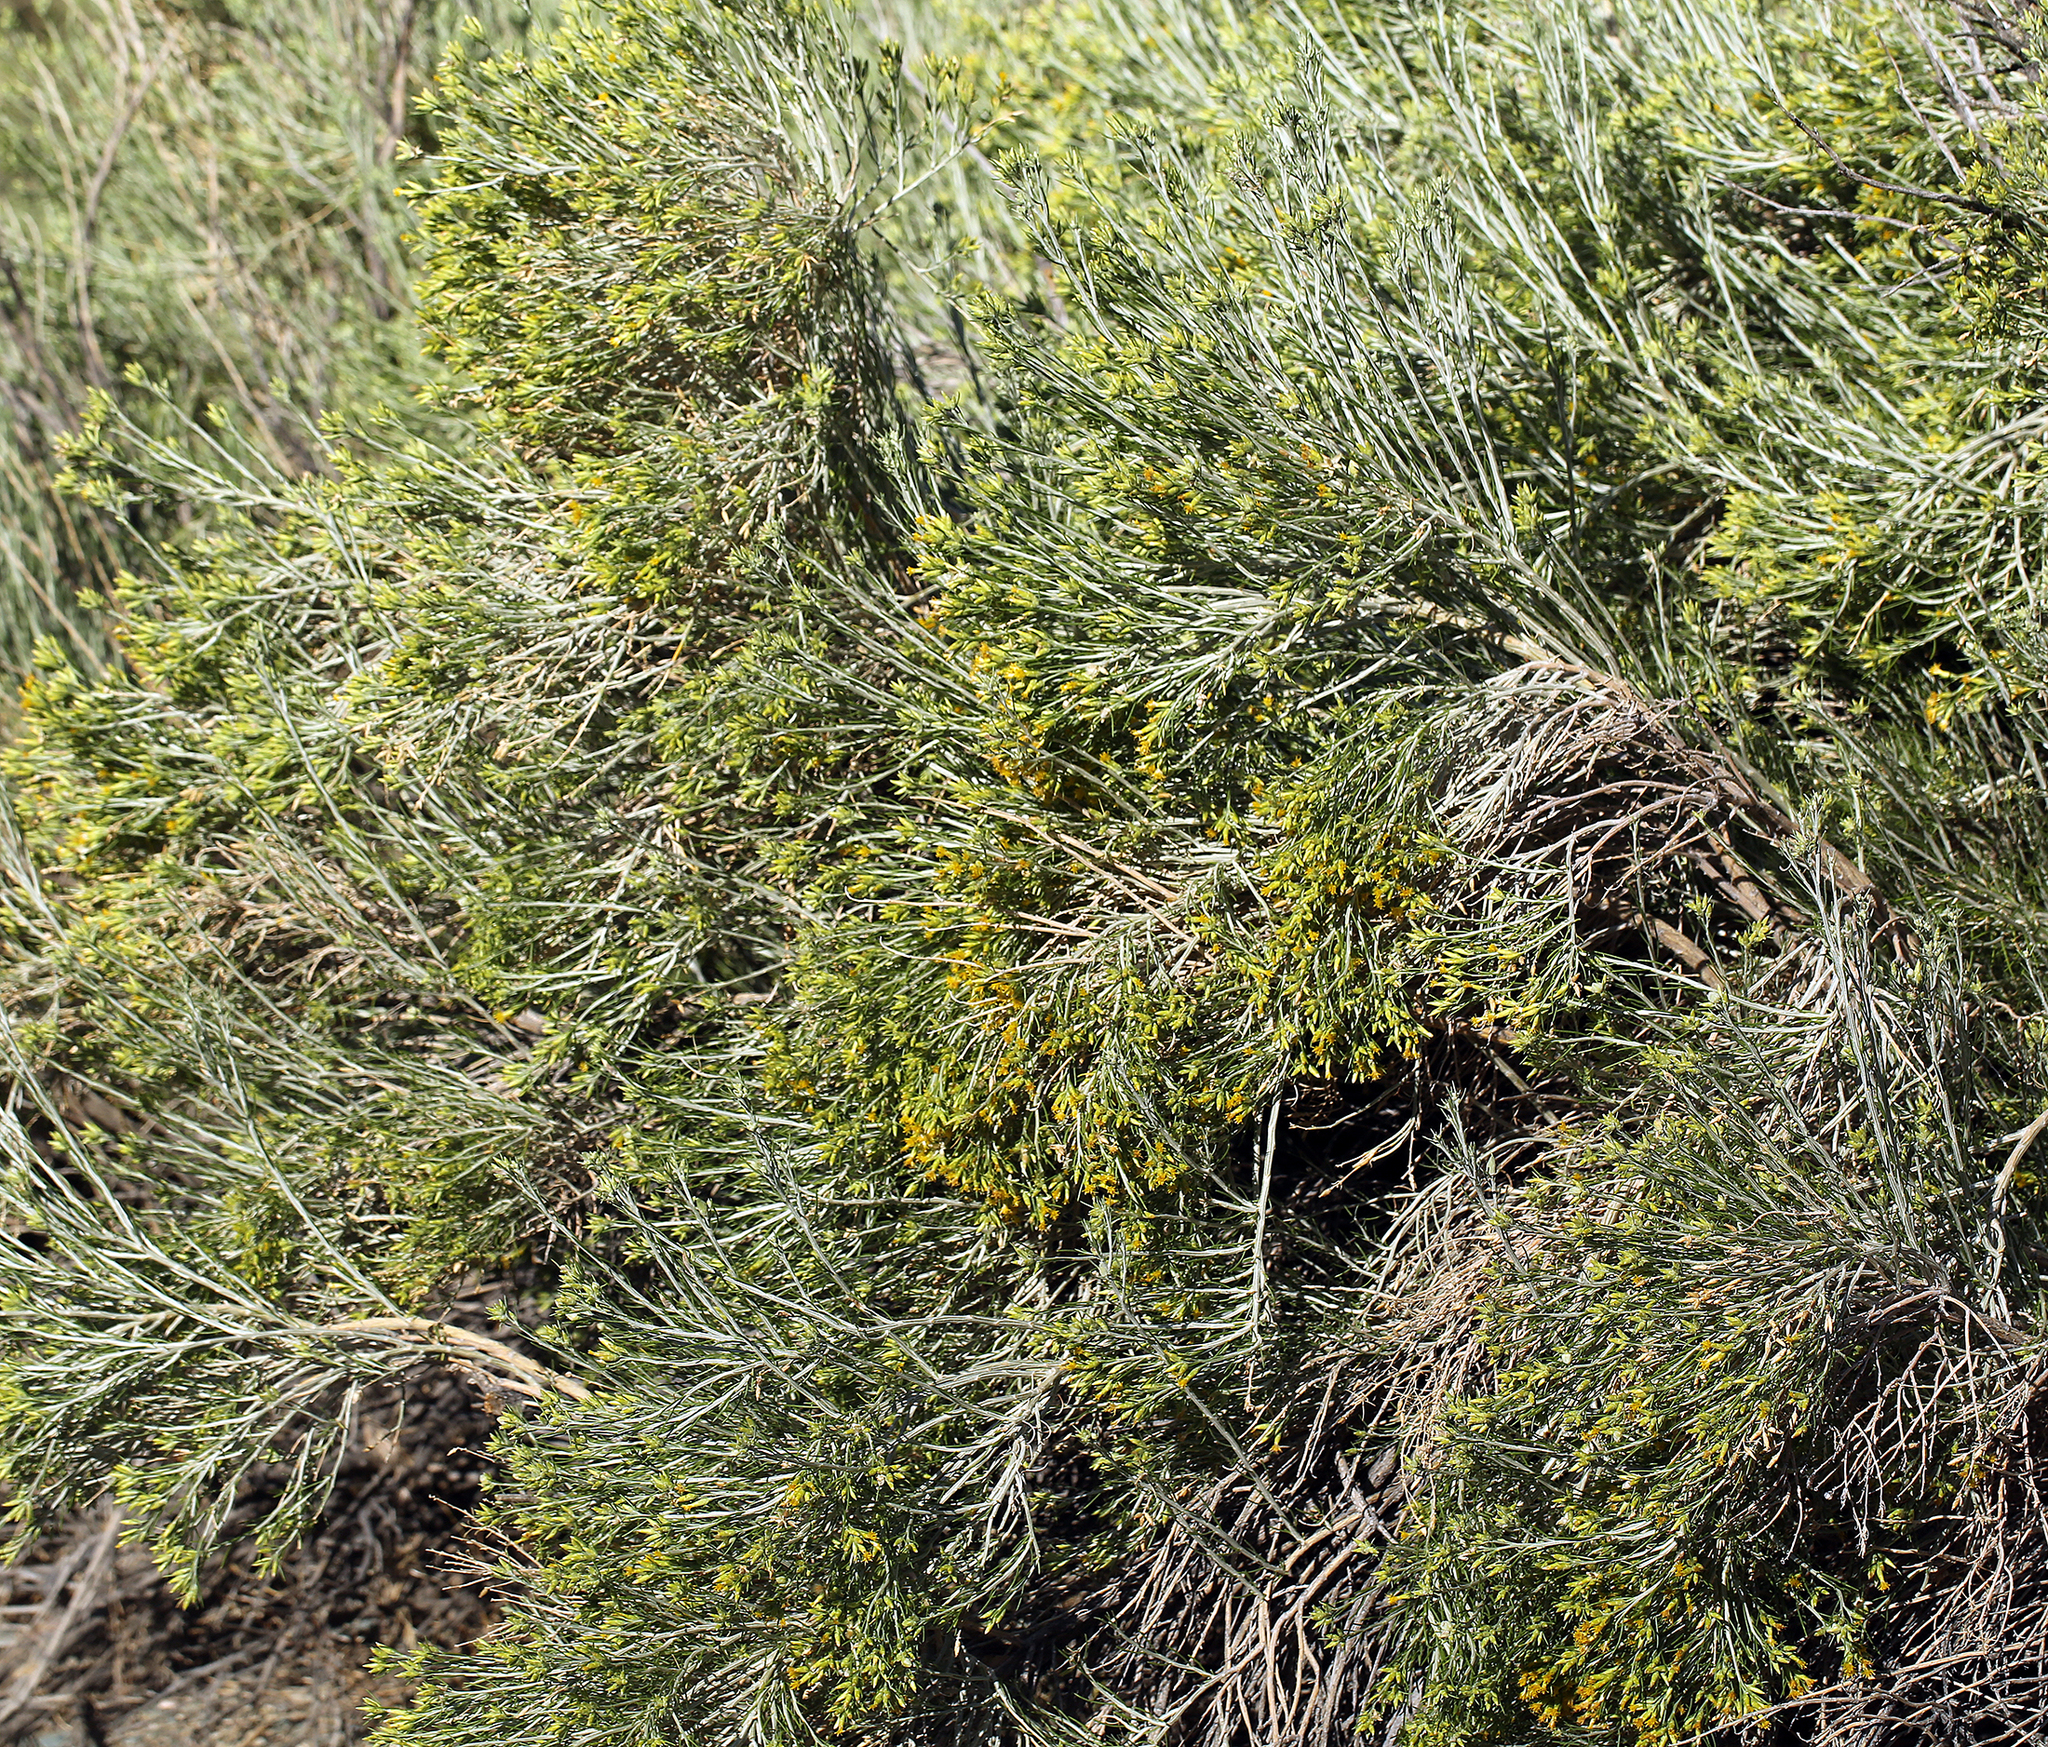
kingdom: Plantae
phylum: Tracheophyta
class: Magnoliopsida
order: Asterales
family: Asteraceae
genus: Lepidospartum
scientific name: Lepidospartum latisquamum
